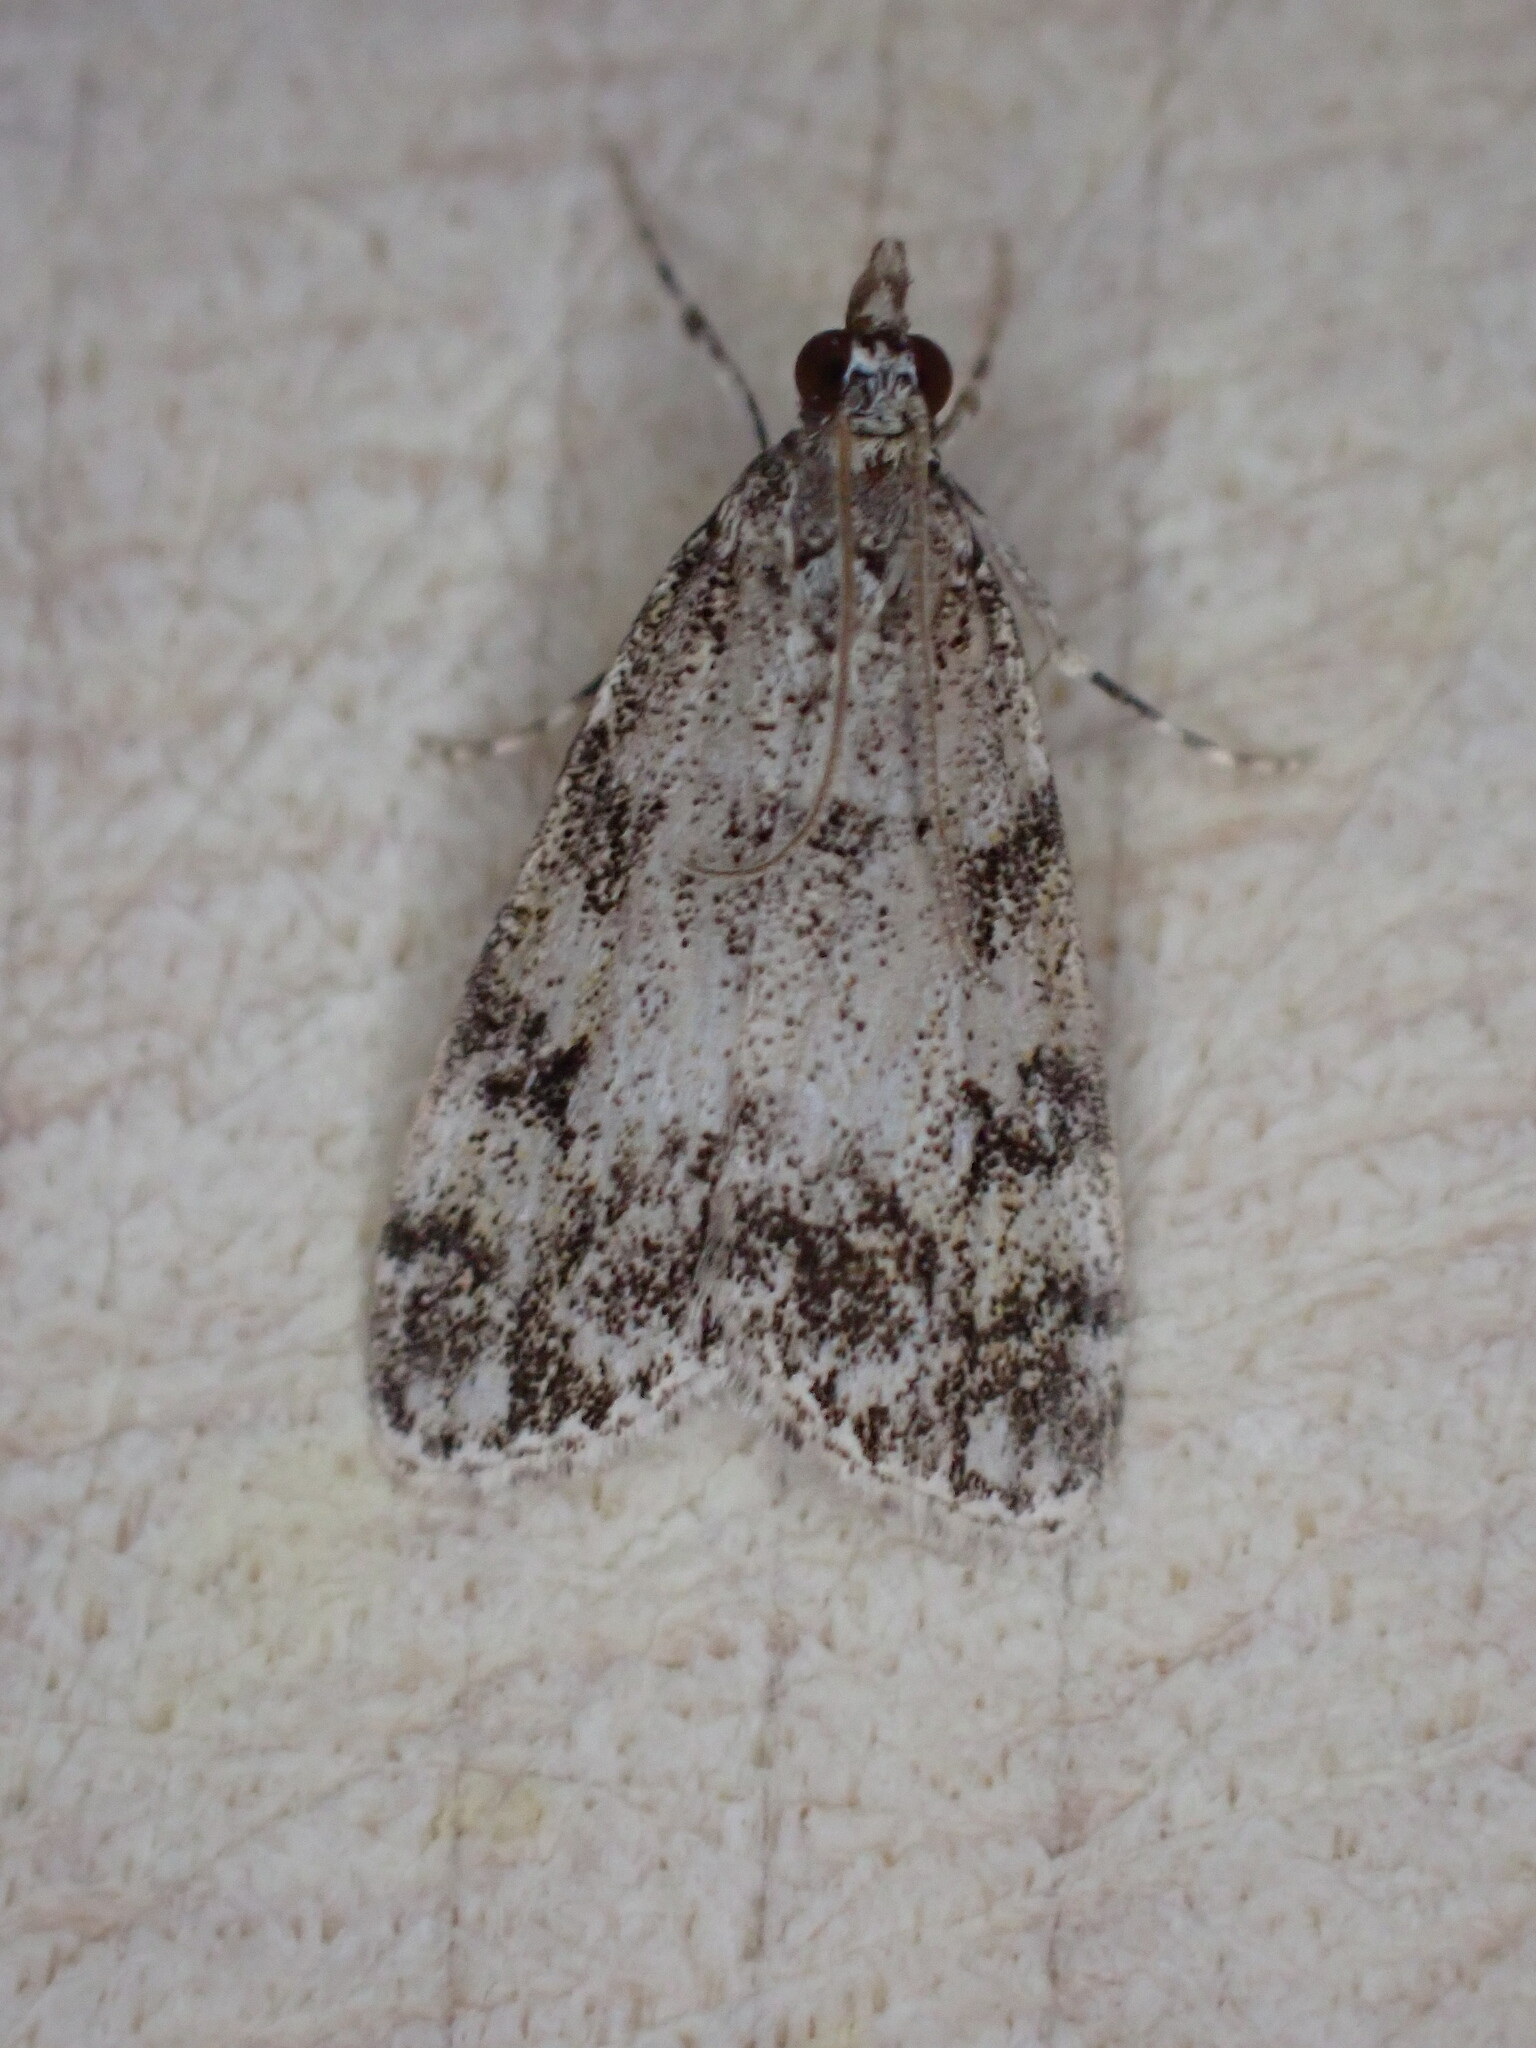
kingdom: Animalia
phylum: Arthropoda
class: Insecta
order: Lepidoptera
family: Crambidae
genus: Eudonia
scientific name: Eudonia lacustrata
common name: Little grey
